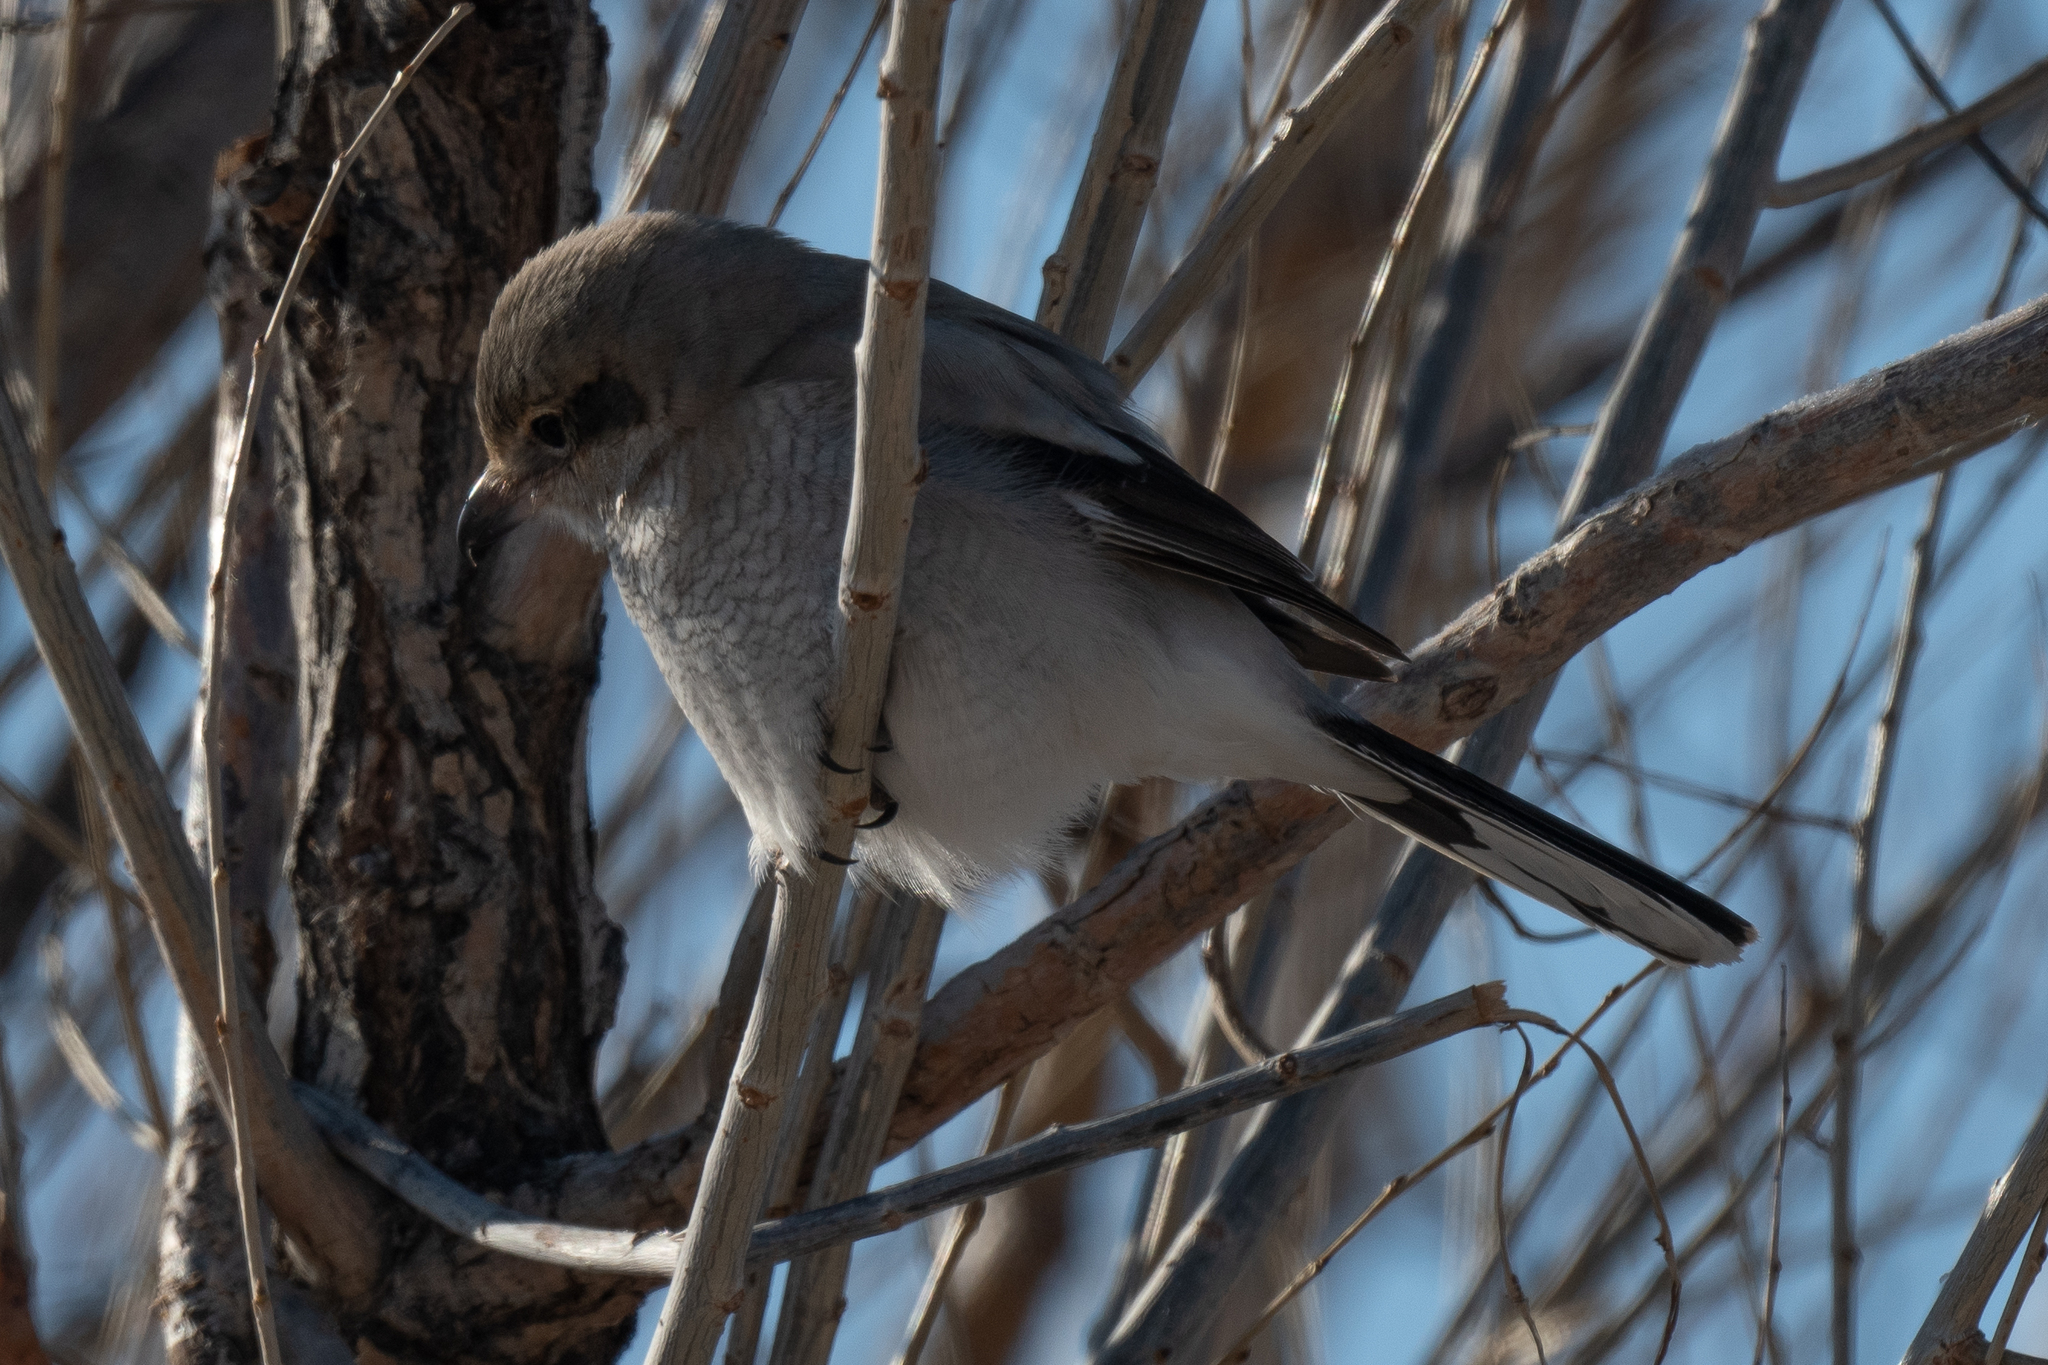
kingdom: Animalia
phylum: Chordata
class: Aves
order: Passeriformes
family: Laniidae
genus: Lanius
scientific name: Lanius borealis
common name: Northern shrike
